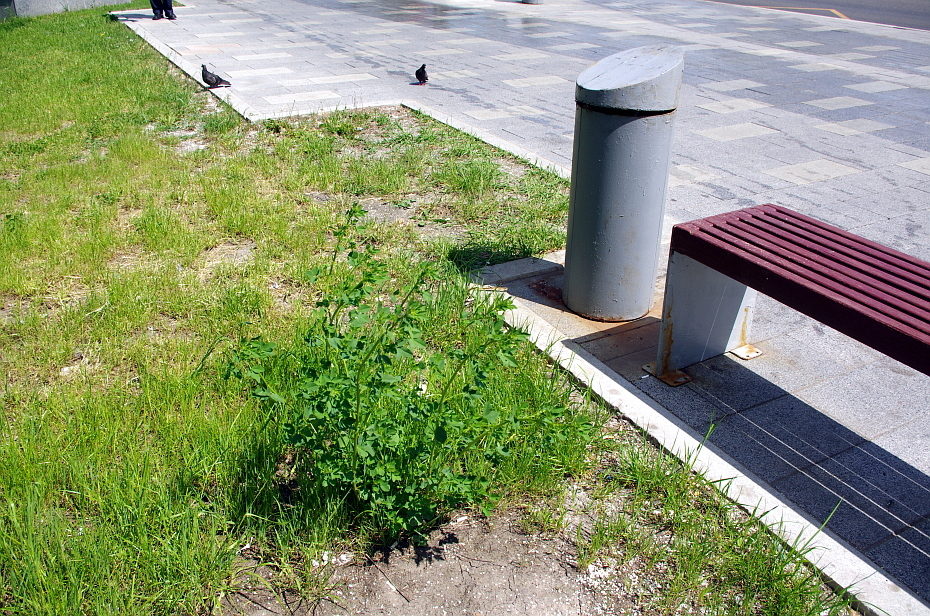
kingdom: Plantae
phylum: Tracheophyta
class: Magnoliopsida
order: Fabales
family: Fabaceae
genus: Melilotus
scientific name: Melilotus officinalis
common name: Sweetclover
